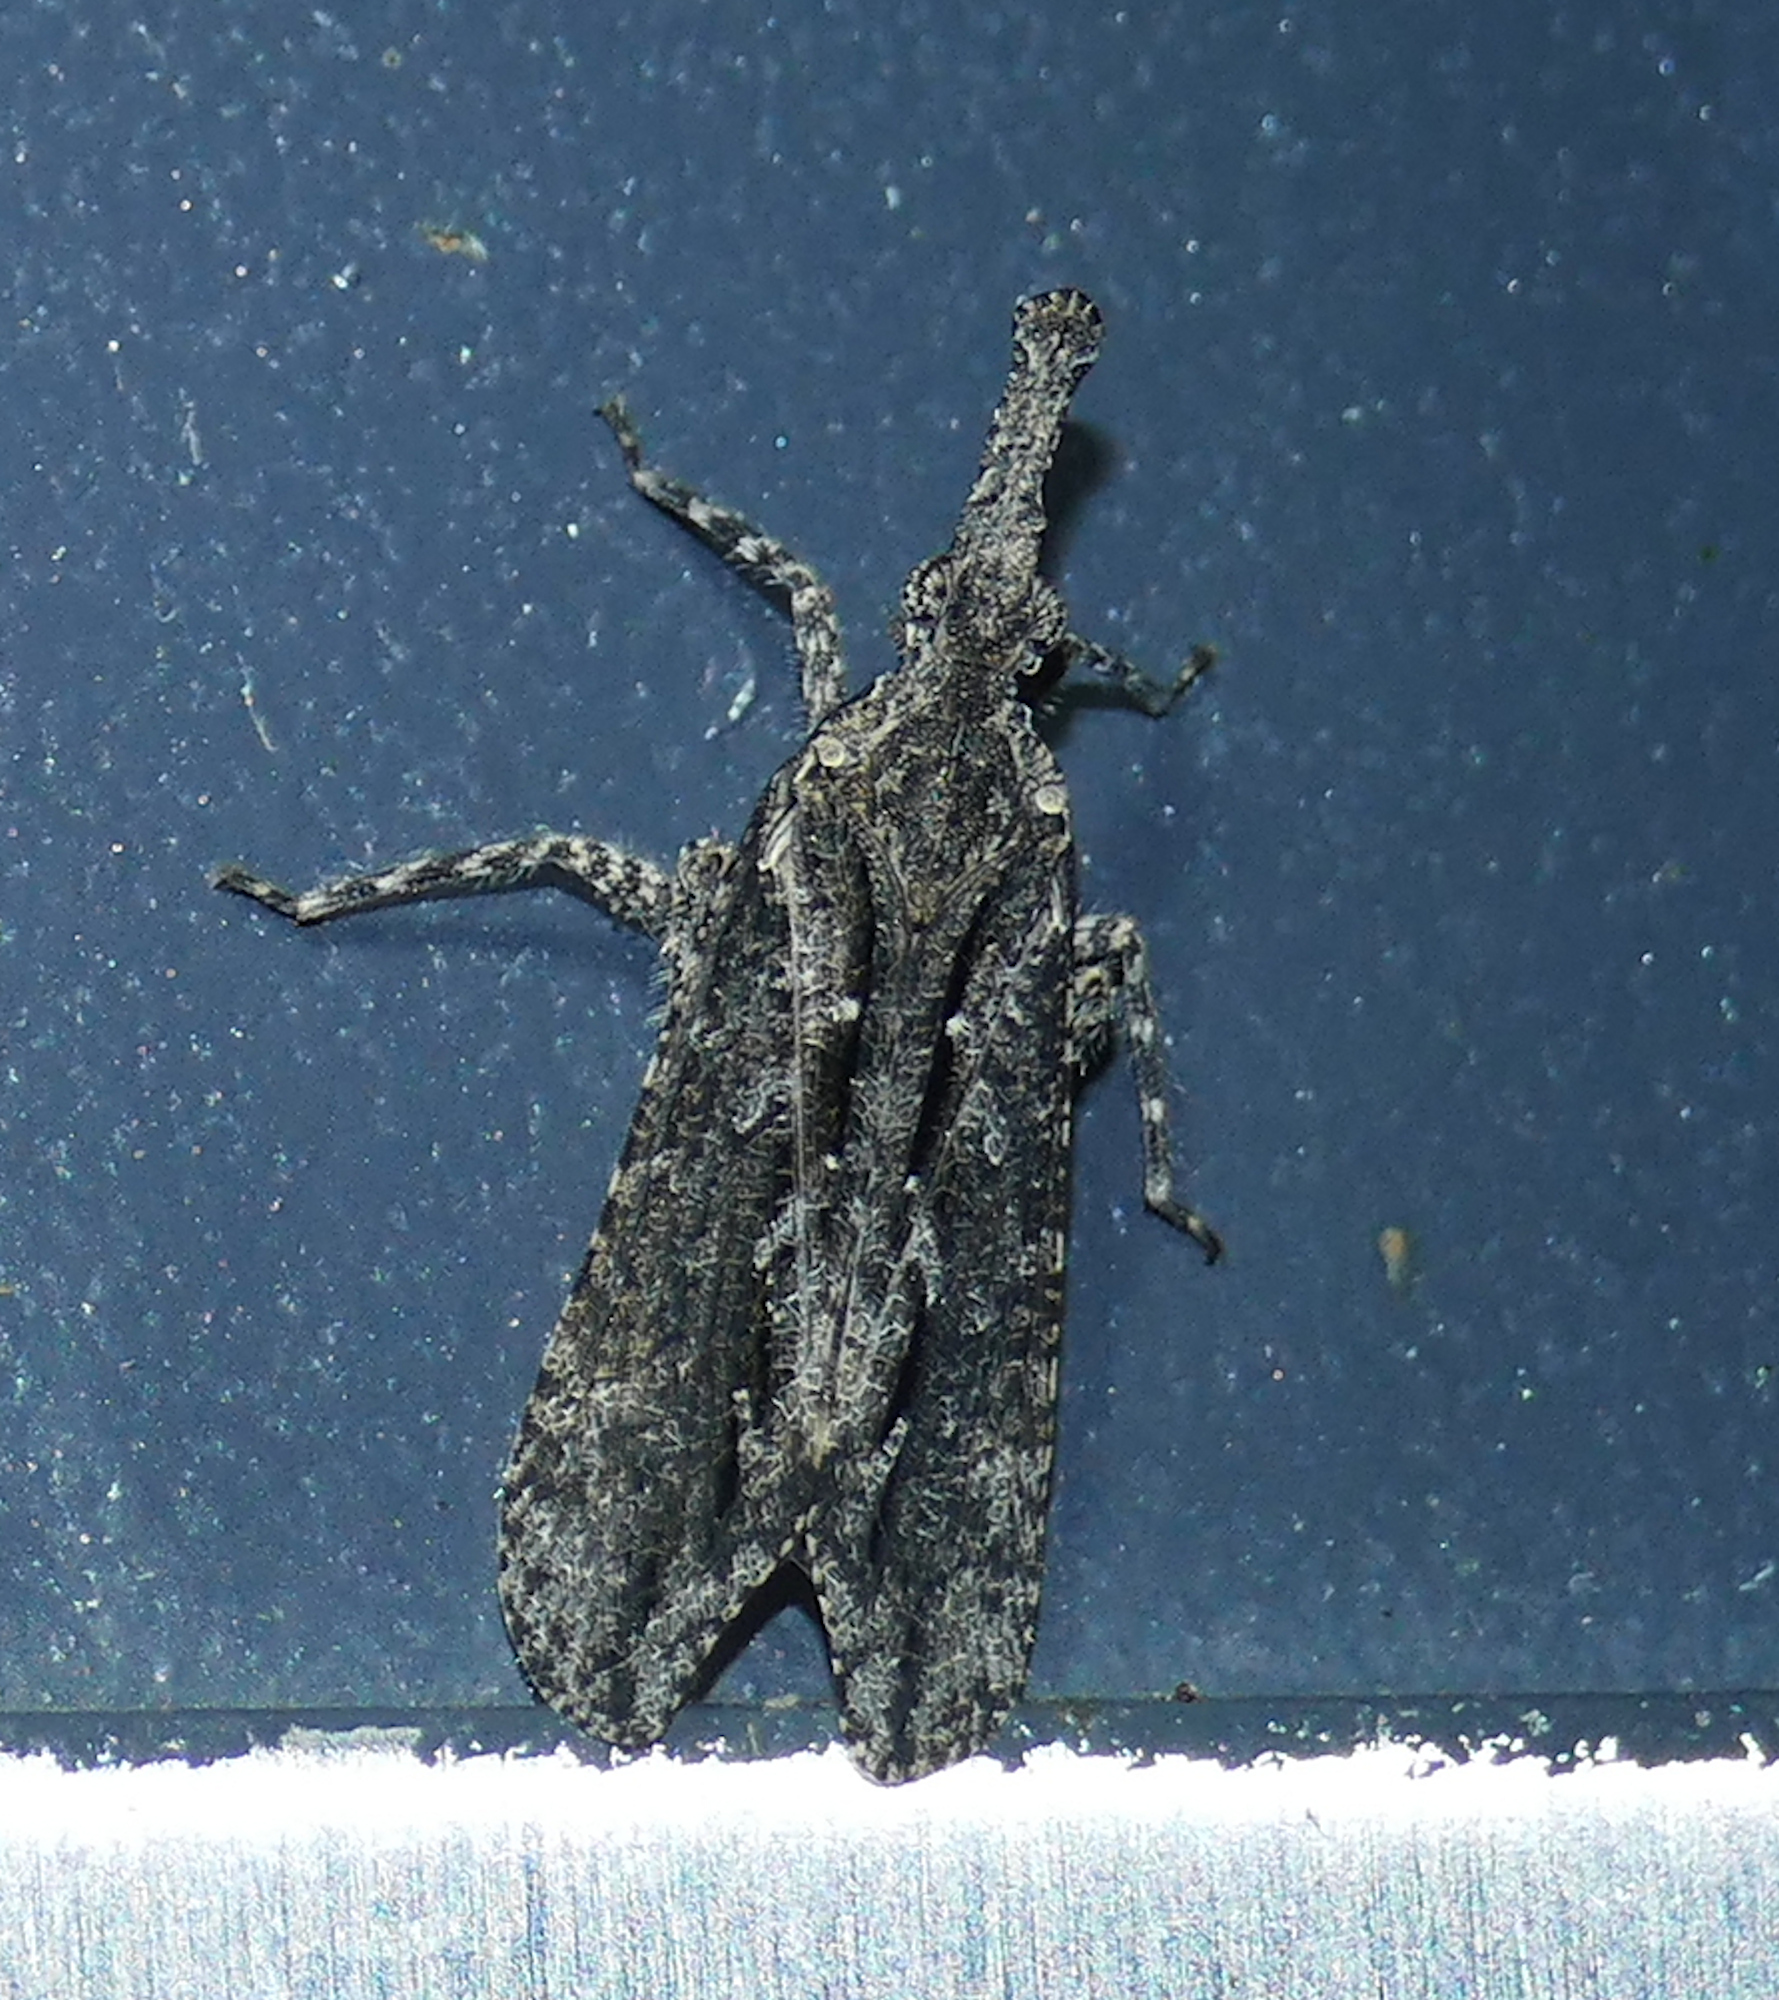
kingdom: Animalia
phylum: Arthropoda
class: Insecta
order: Hemiptera
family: Fulgoridae
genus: Scolopsella
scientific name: Scolopsella reticulata
